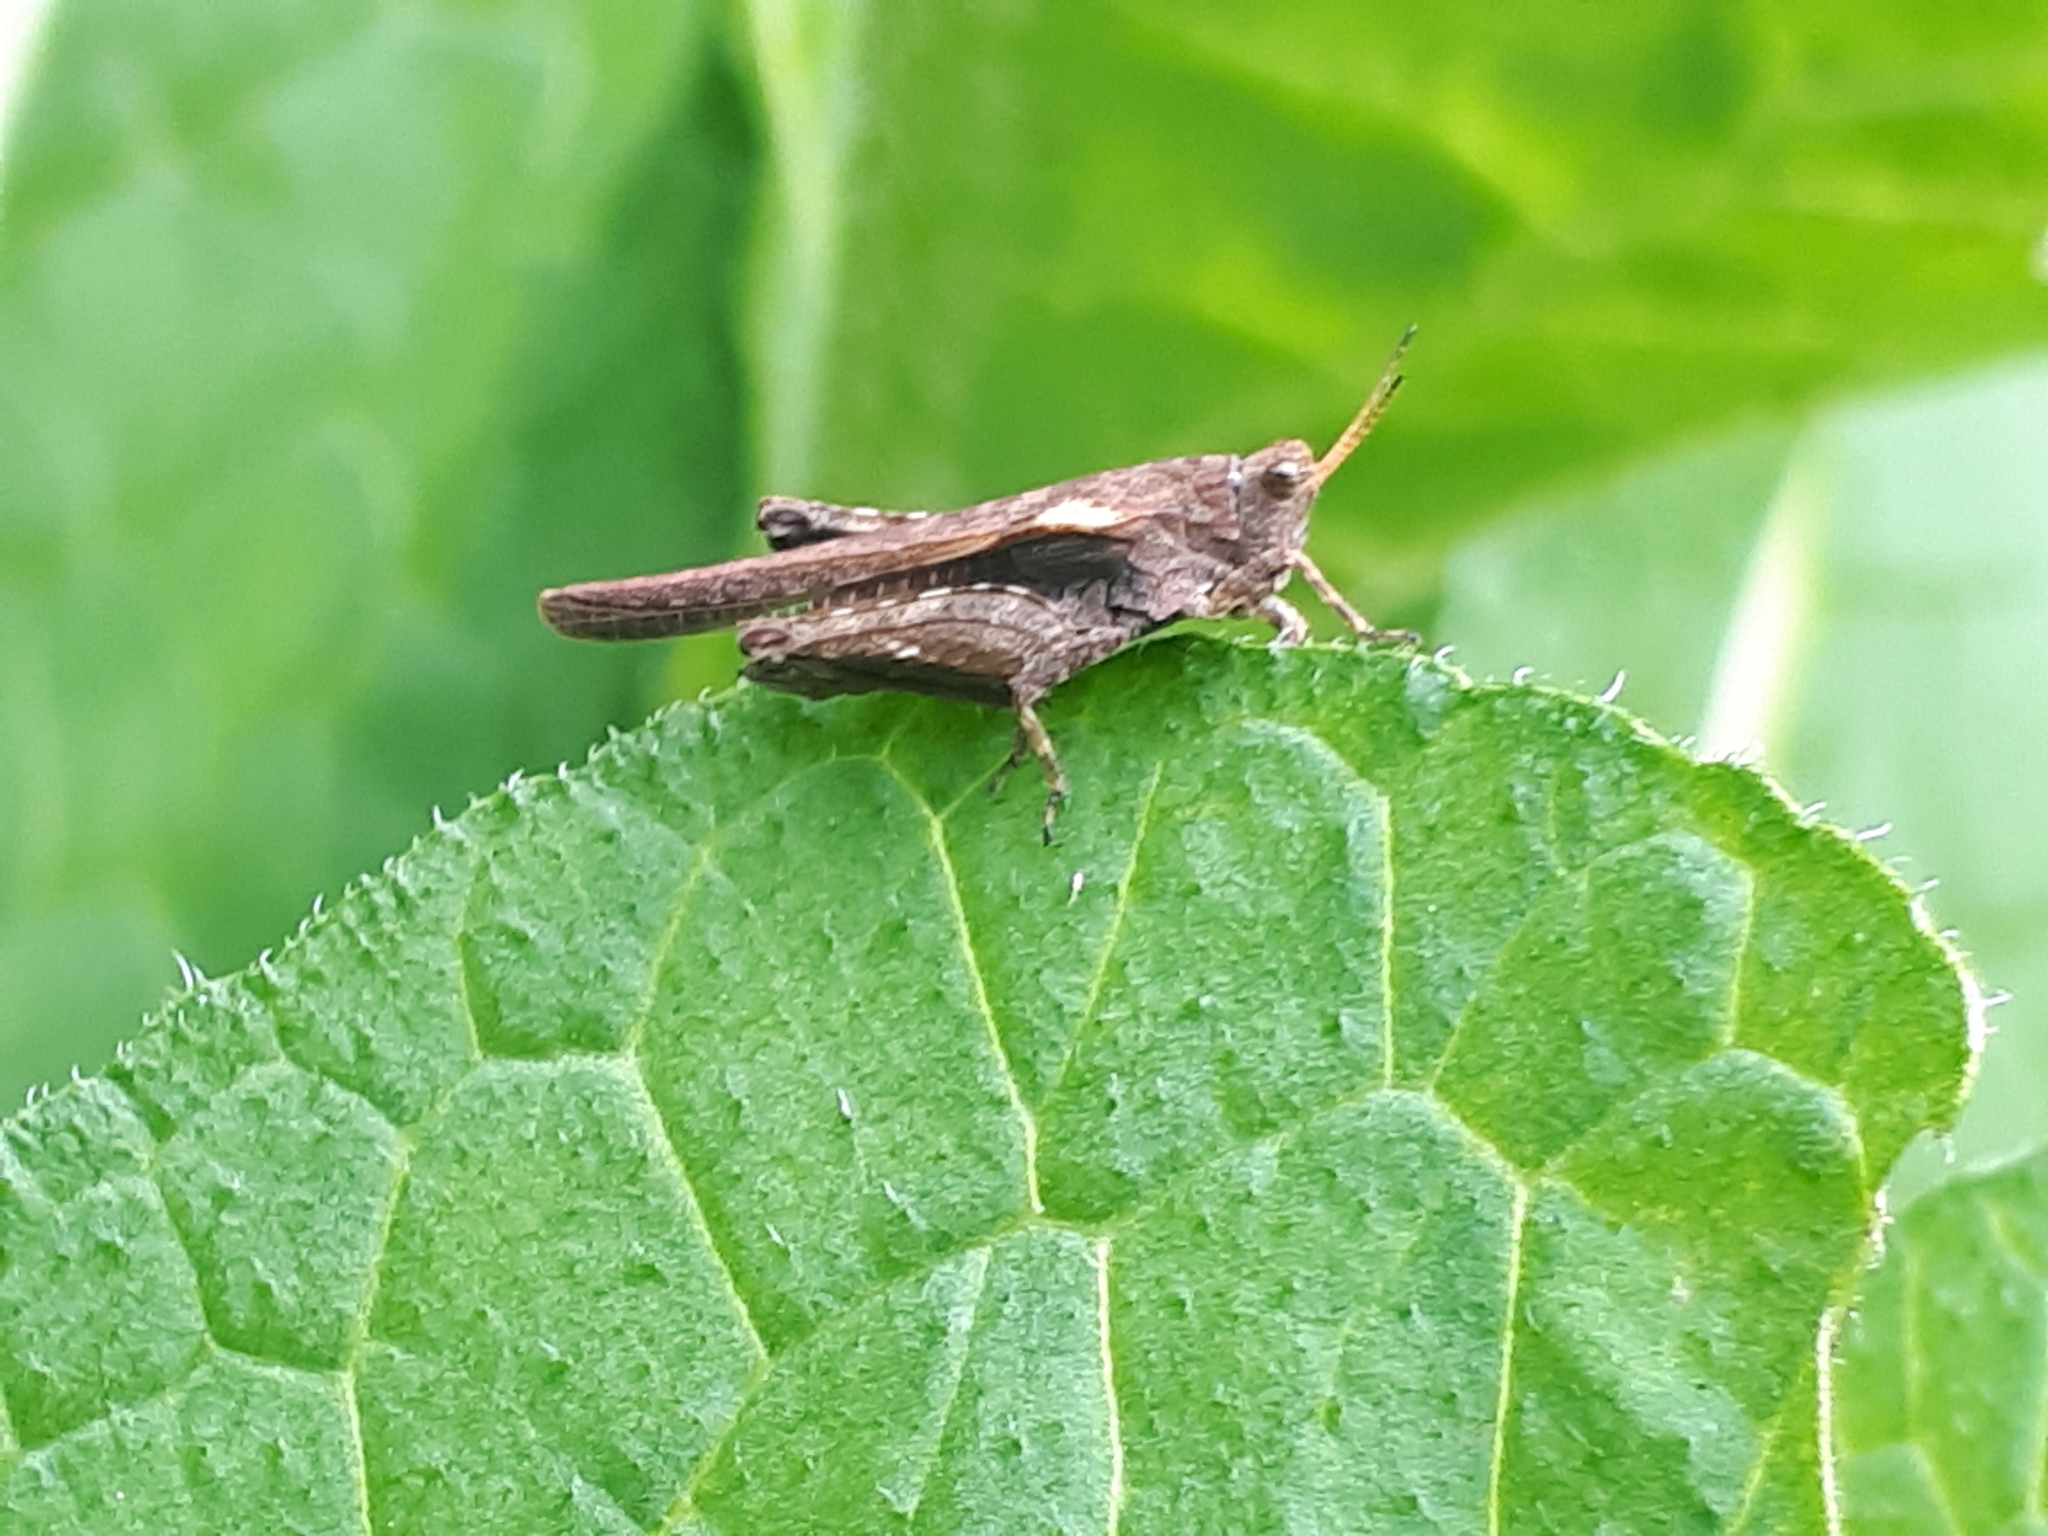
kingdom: Animalia
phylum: Arthropoda
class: Insecta
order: Orthoptera
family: Tetrigidae
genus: Tetrix
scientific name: Tetrix subulata
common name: Slender ground-hopper
